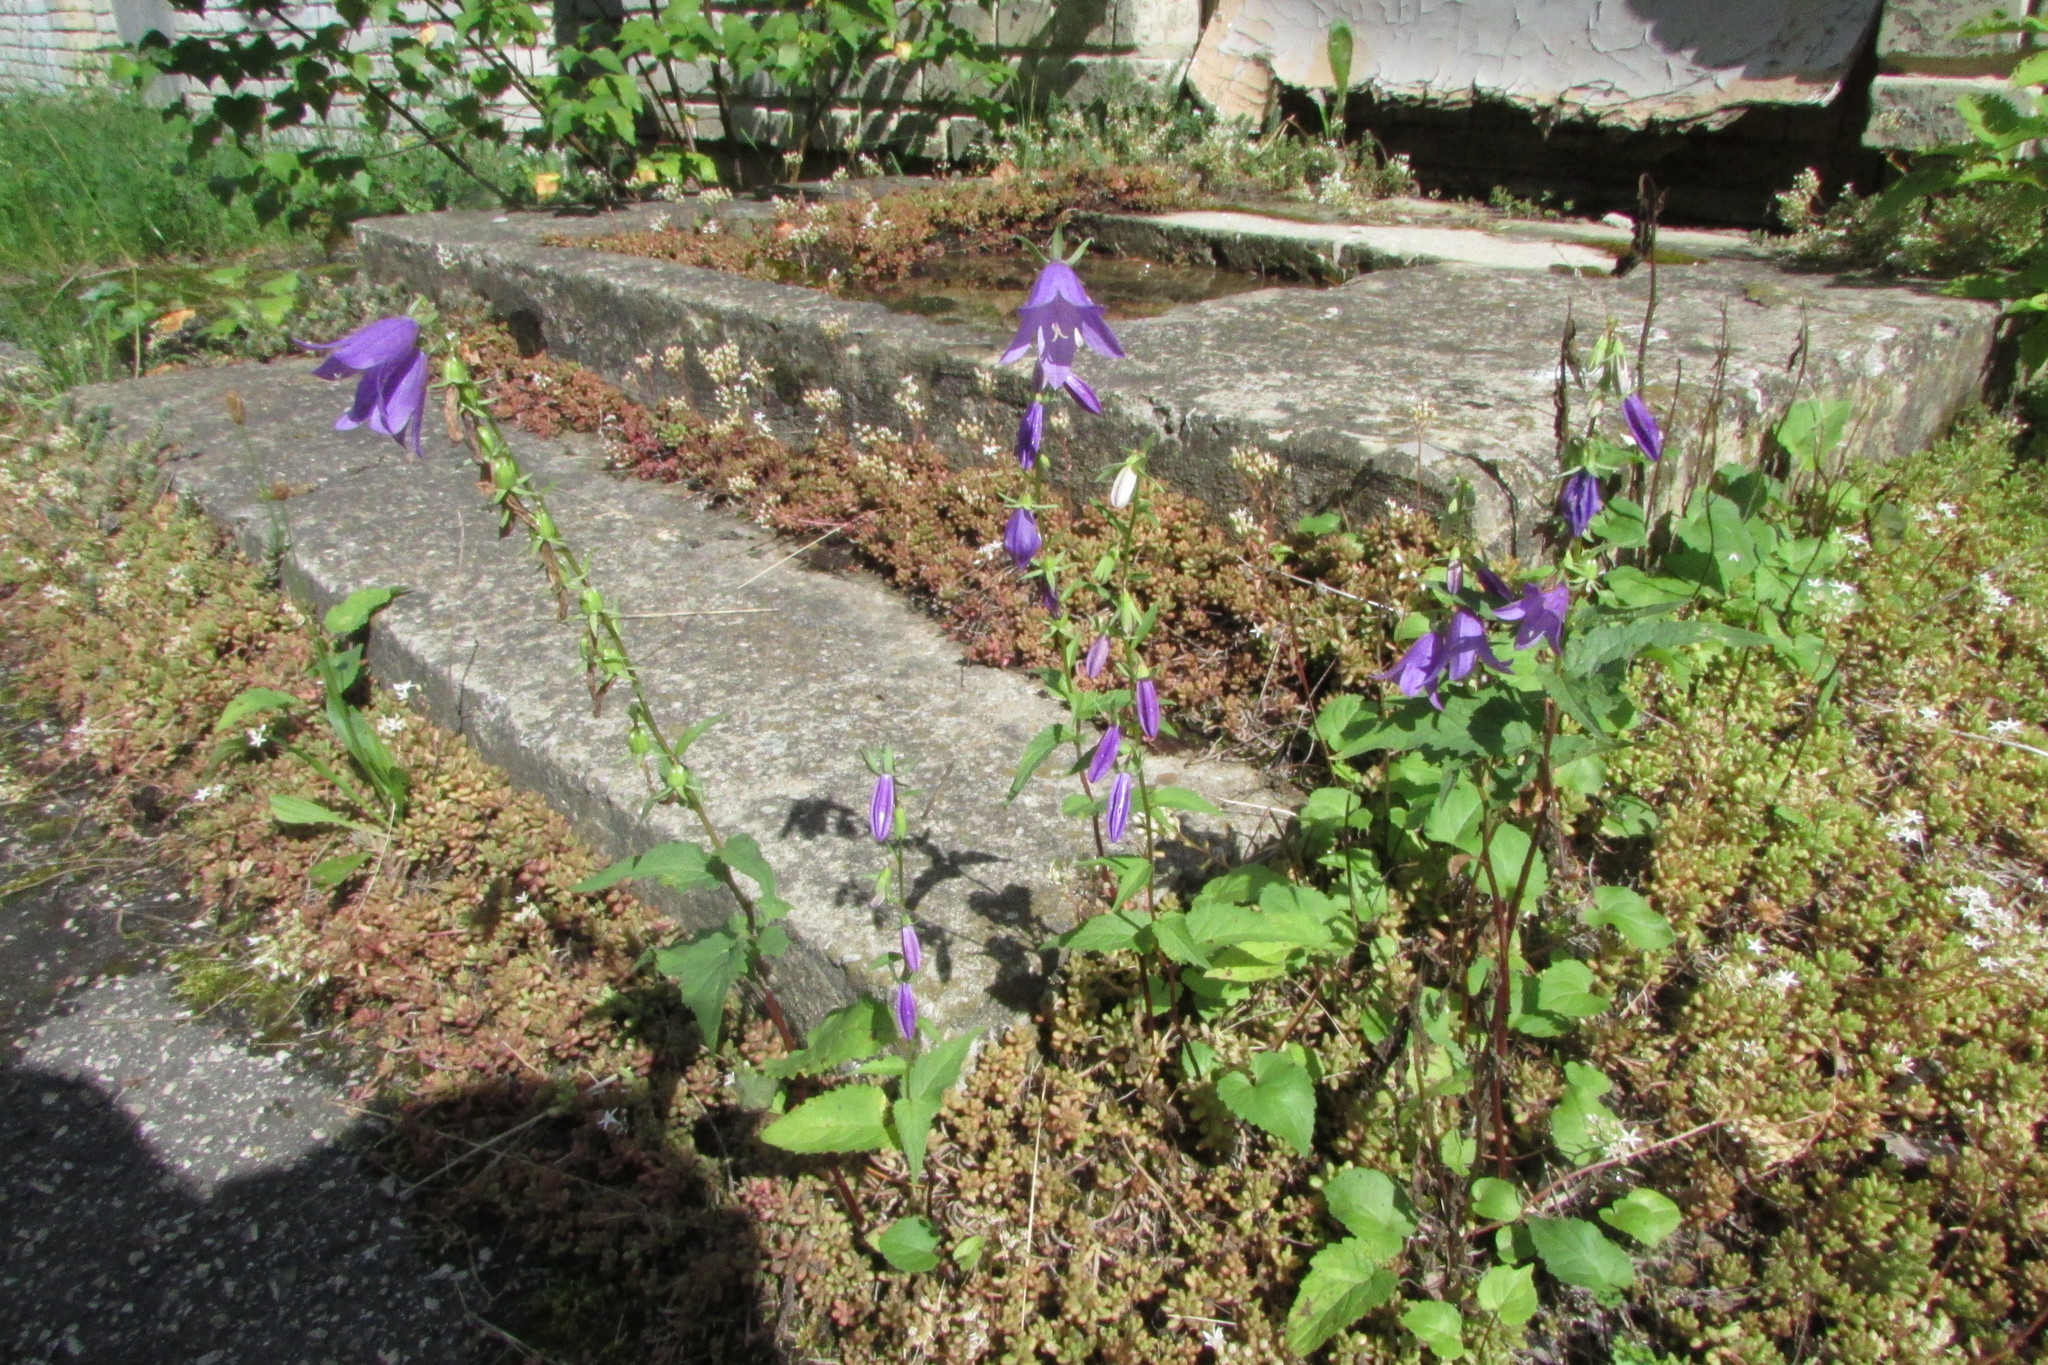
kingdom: Plantae
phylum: Tracheophyta
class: Magnoliopsida
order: Asterales
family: Campanulaceae
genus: Campanula
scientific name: Campanula rapunculoides
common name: Creeping bellflower
